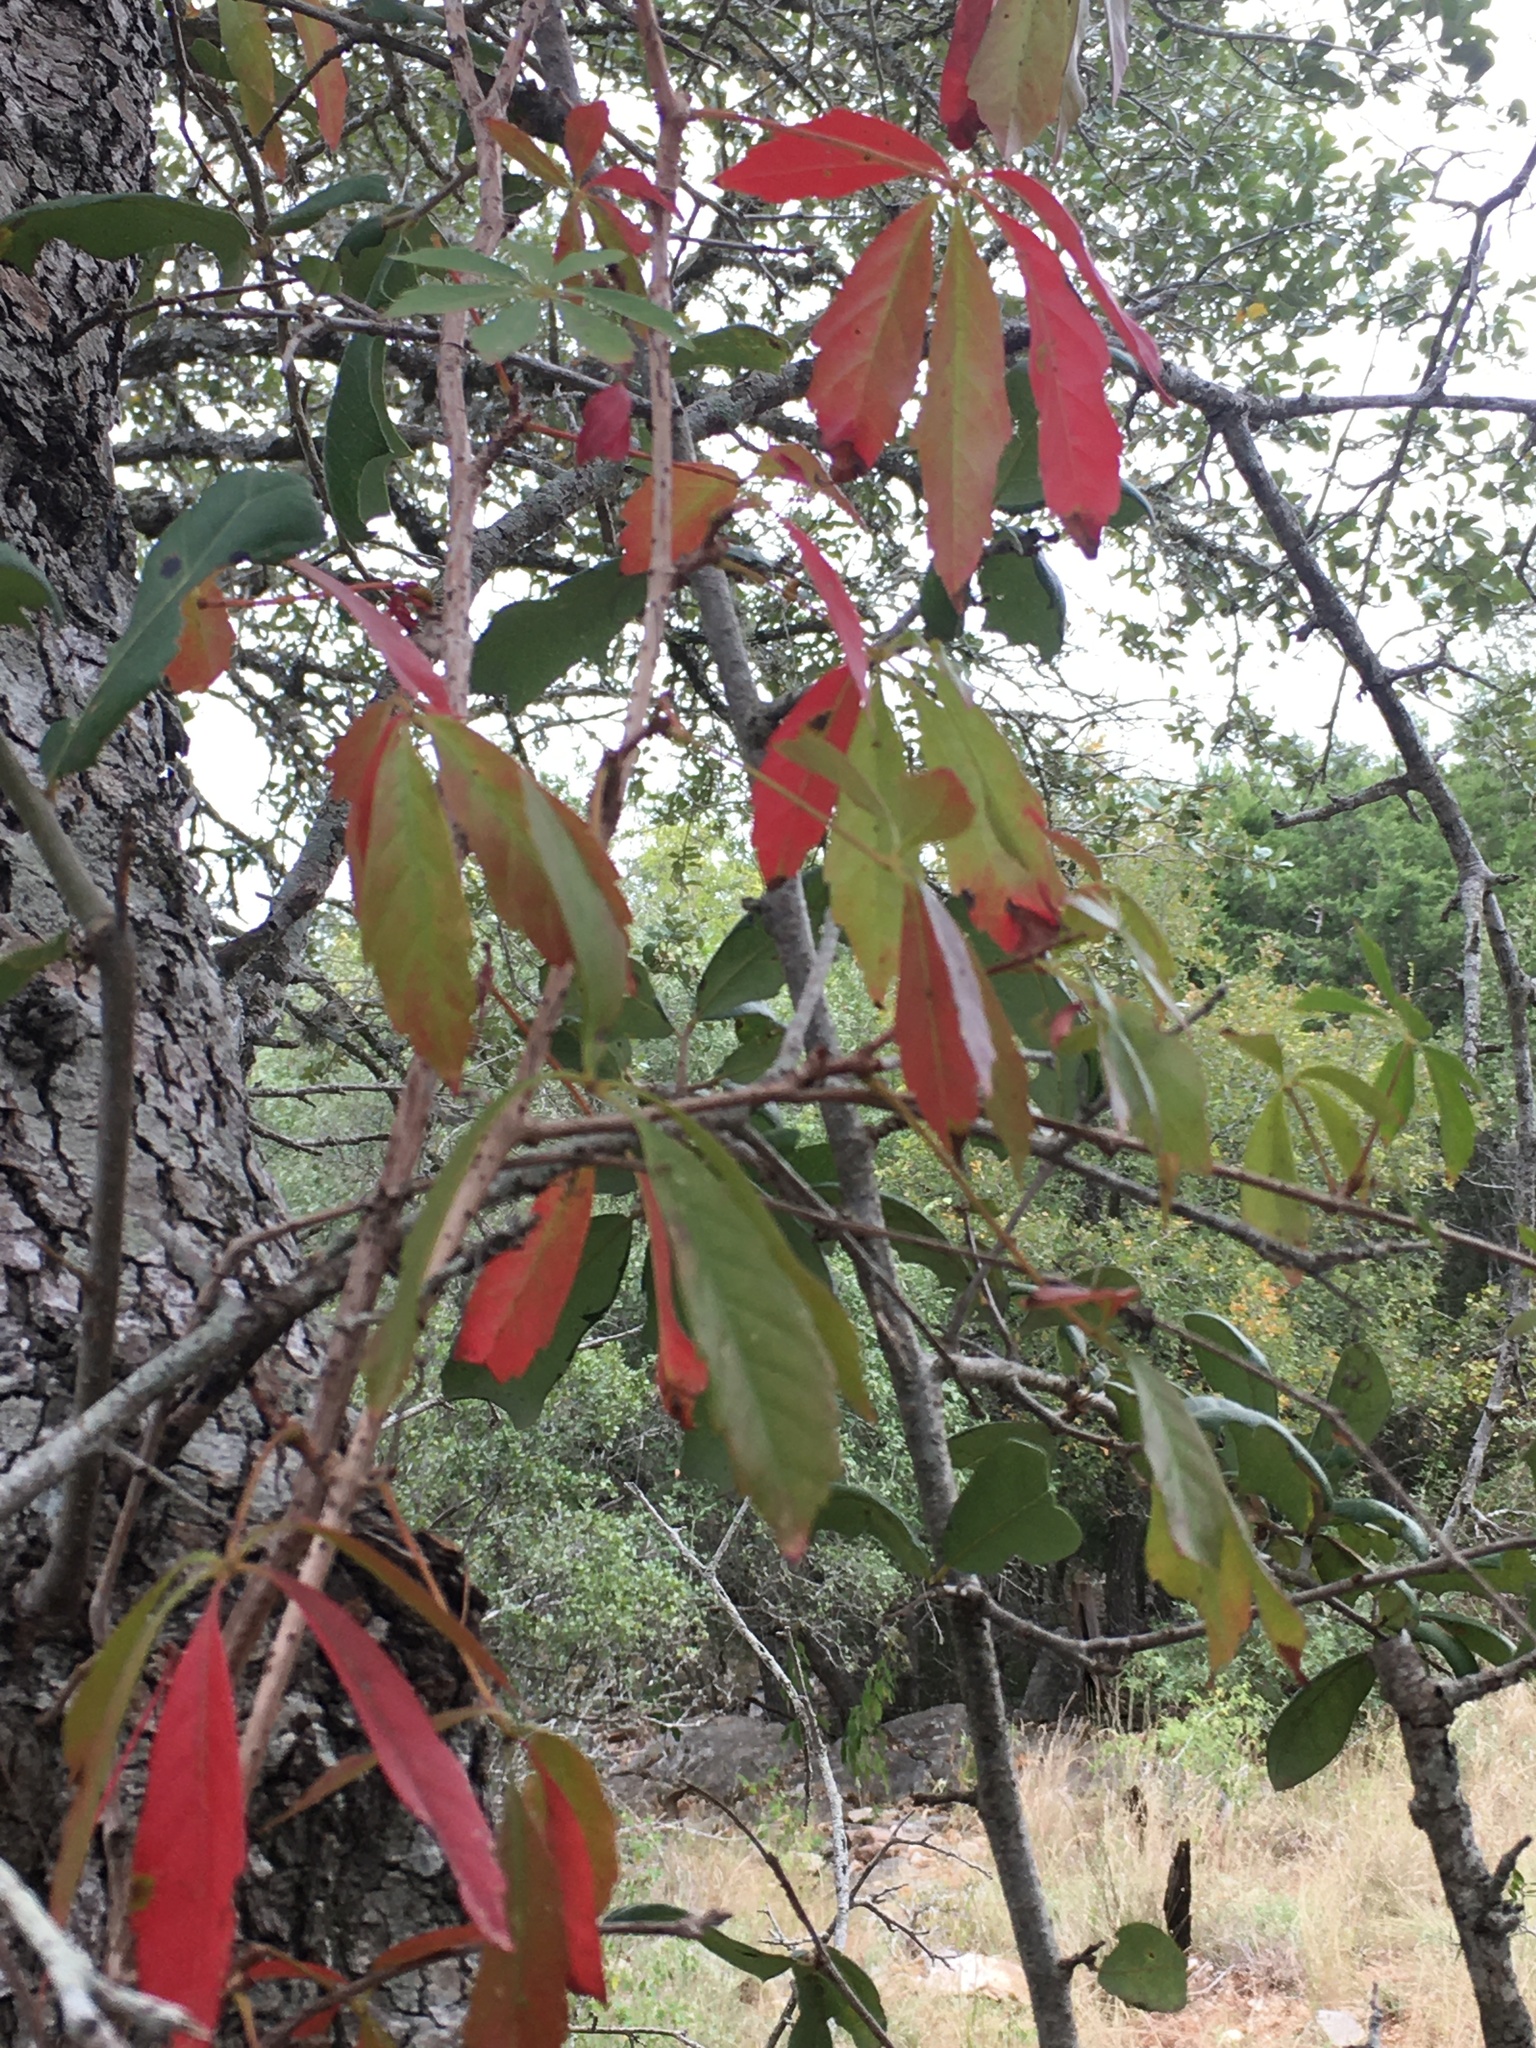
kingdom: Plantae
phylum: Tracheophyta
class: Magnoliopsida
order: Vitales
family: Vitaceae
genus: Parthenocissus
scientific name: Parthenocissus heptaphylla
